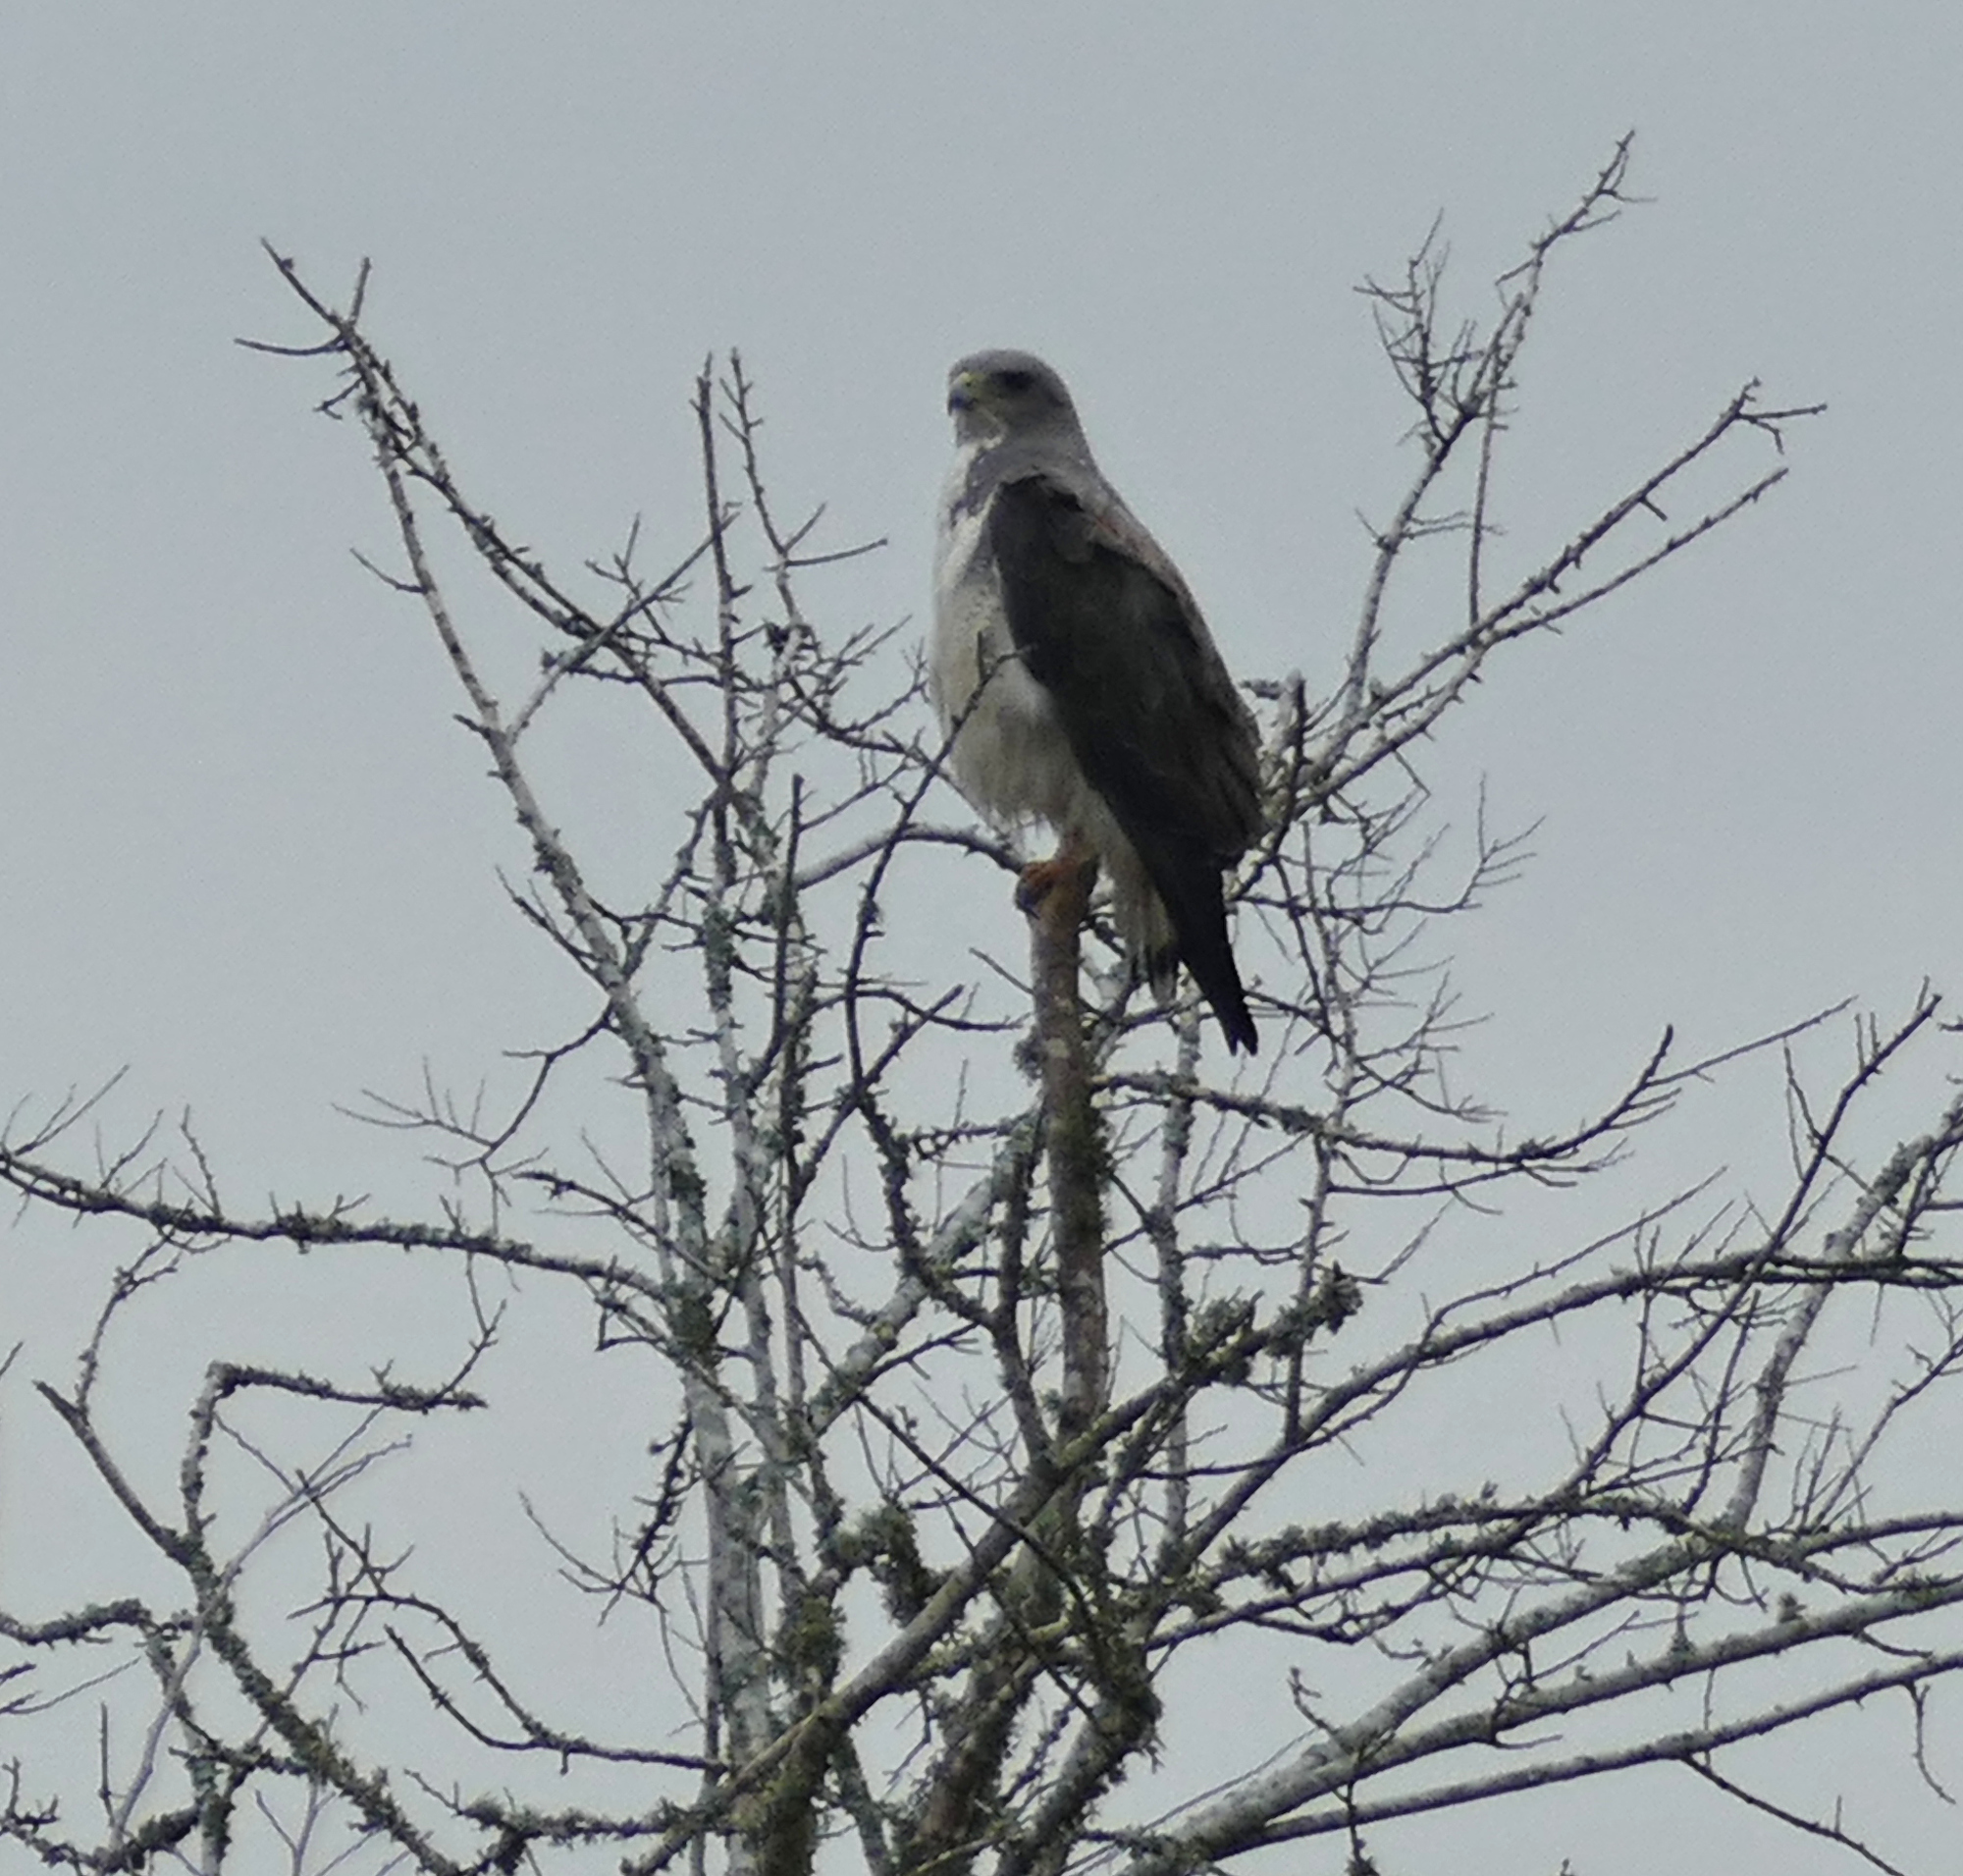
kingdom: Animalia
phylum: Chordata
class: Aves
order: Accipitriformes
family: Accipitridae
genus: Buteo
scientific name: Buteo albicaudatus
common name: White-tailed hawk
